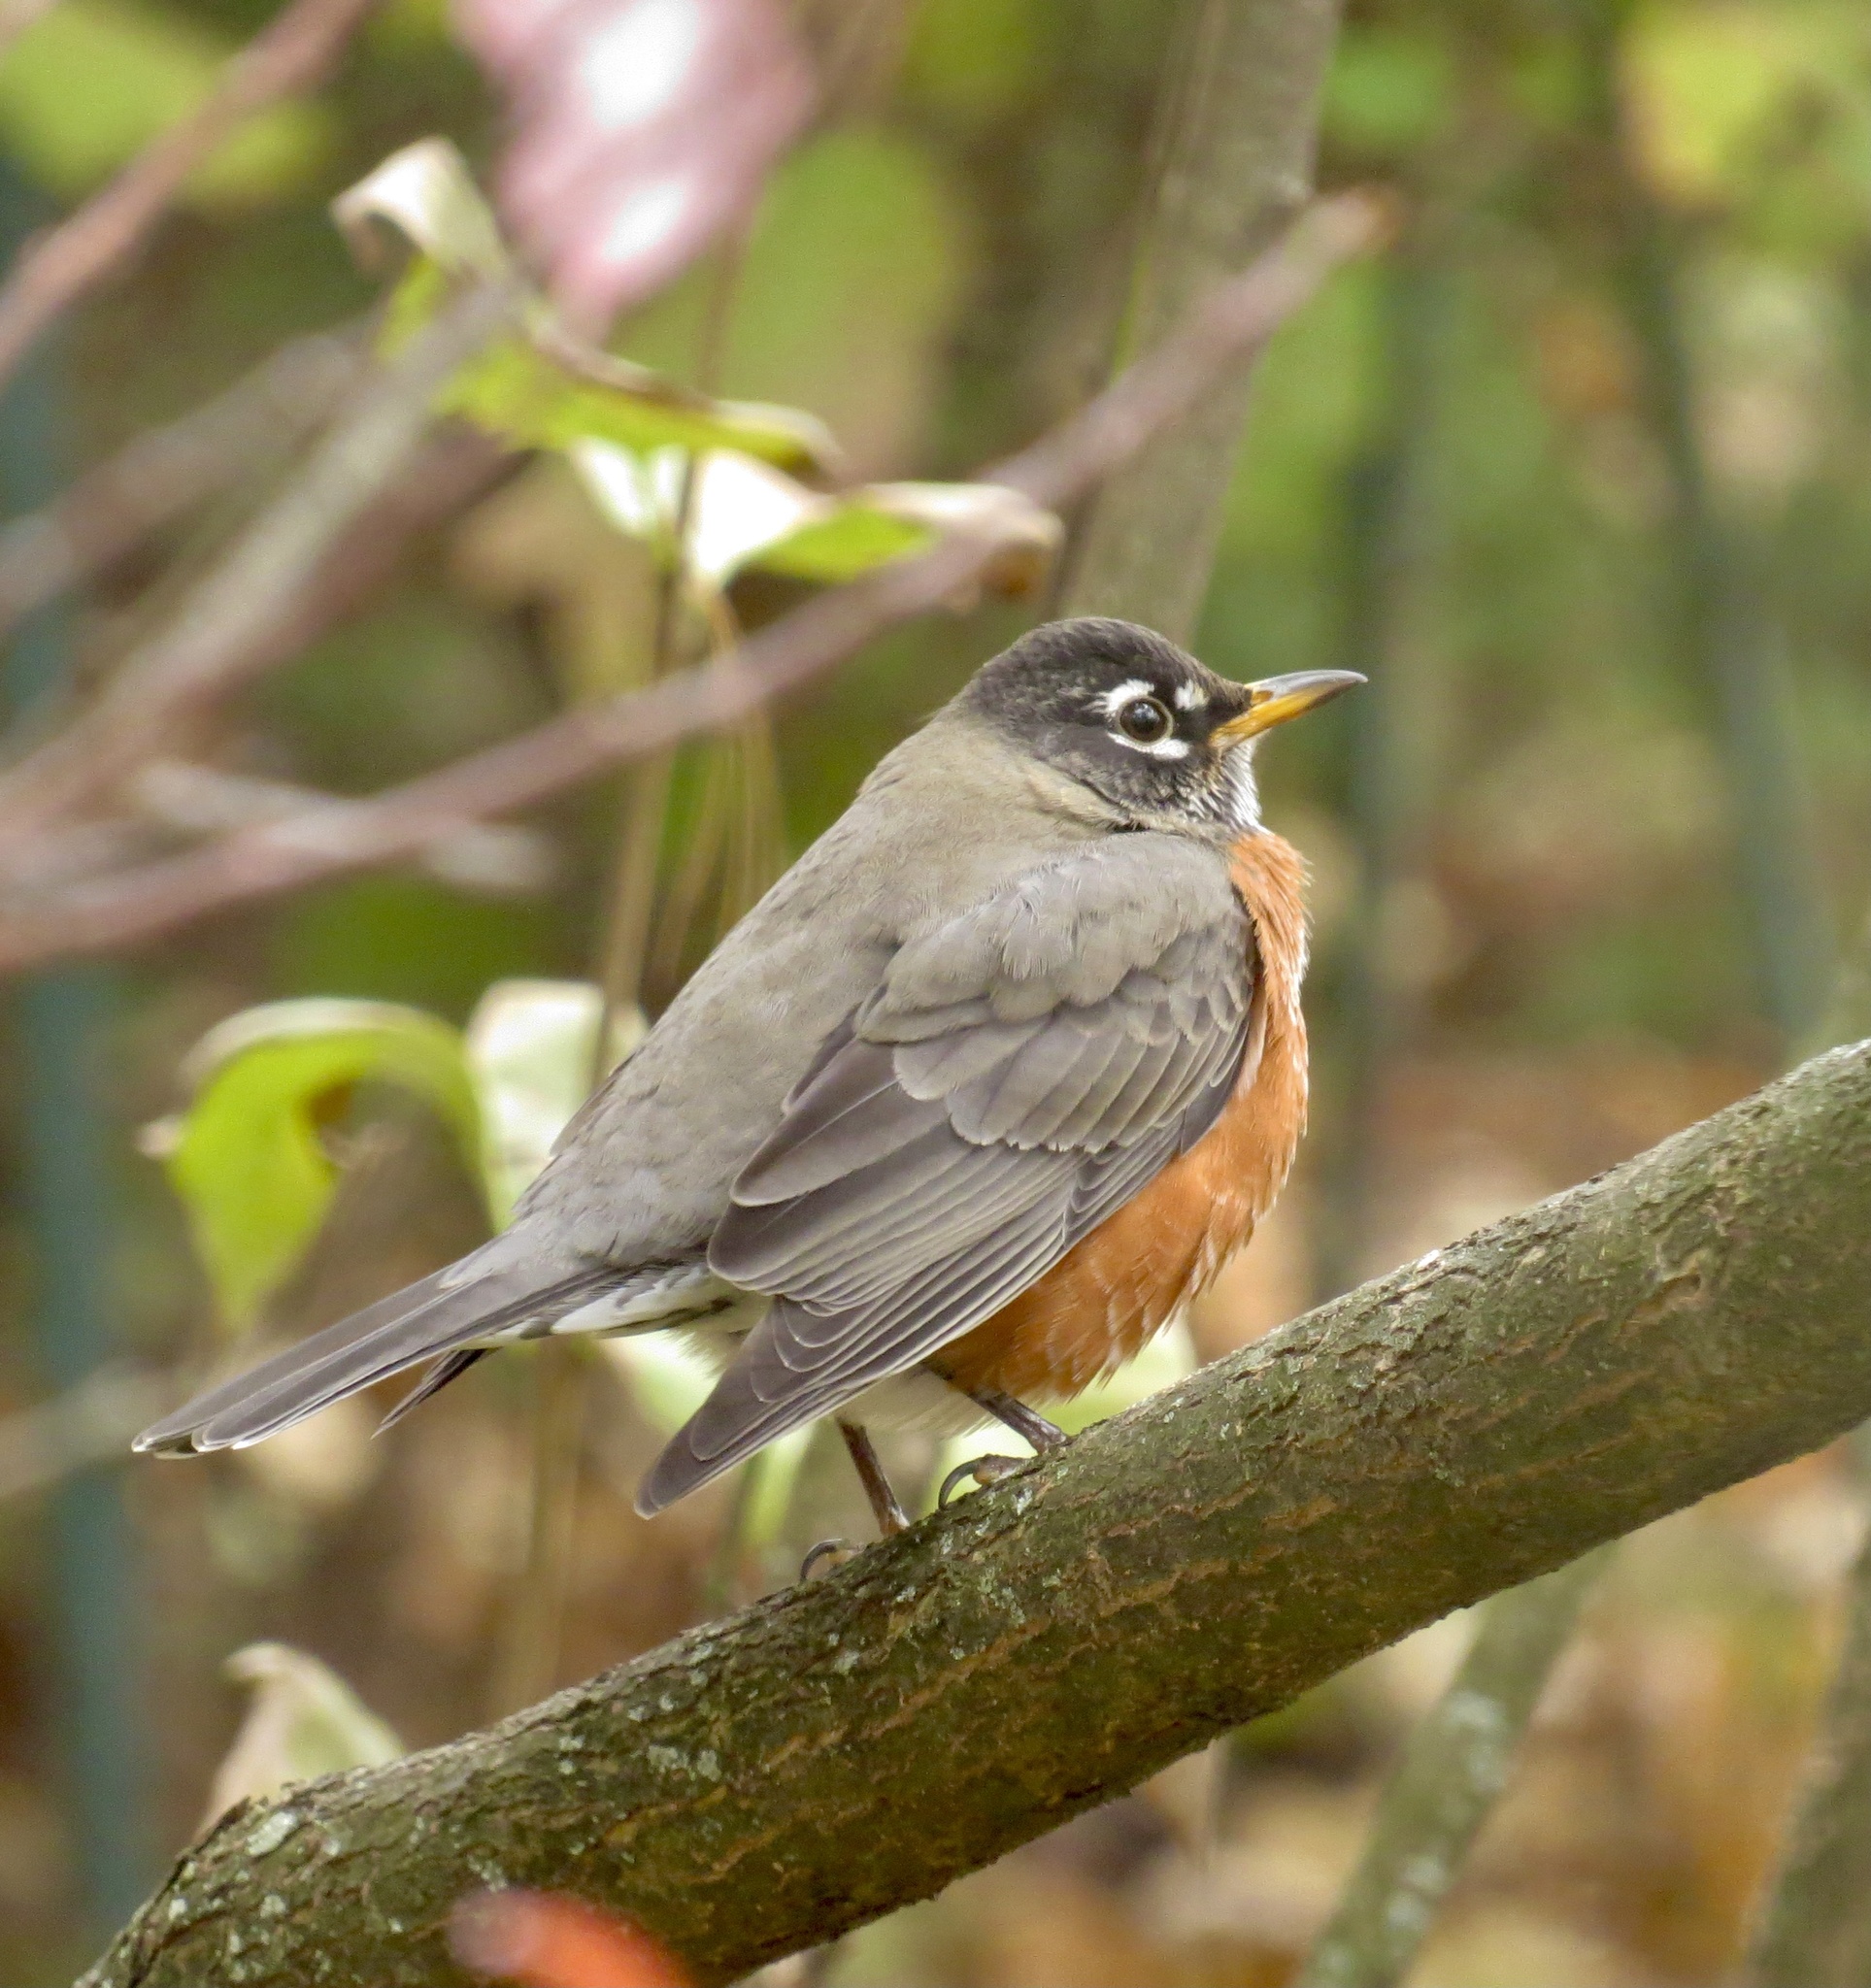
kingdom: Animalia
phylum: Chordata
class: Aves
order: Passeriformes
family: Turdidae
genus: Turdus
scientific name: Turdus migratorius
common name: American robin
